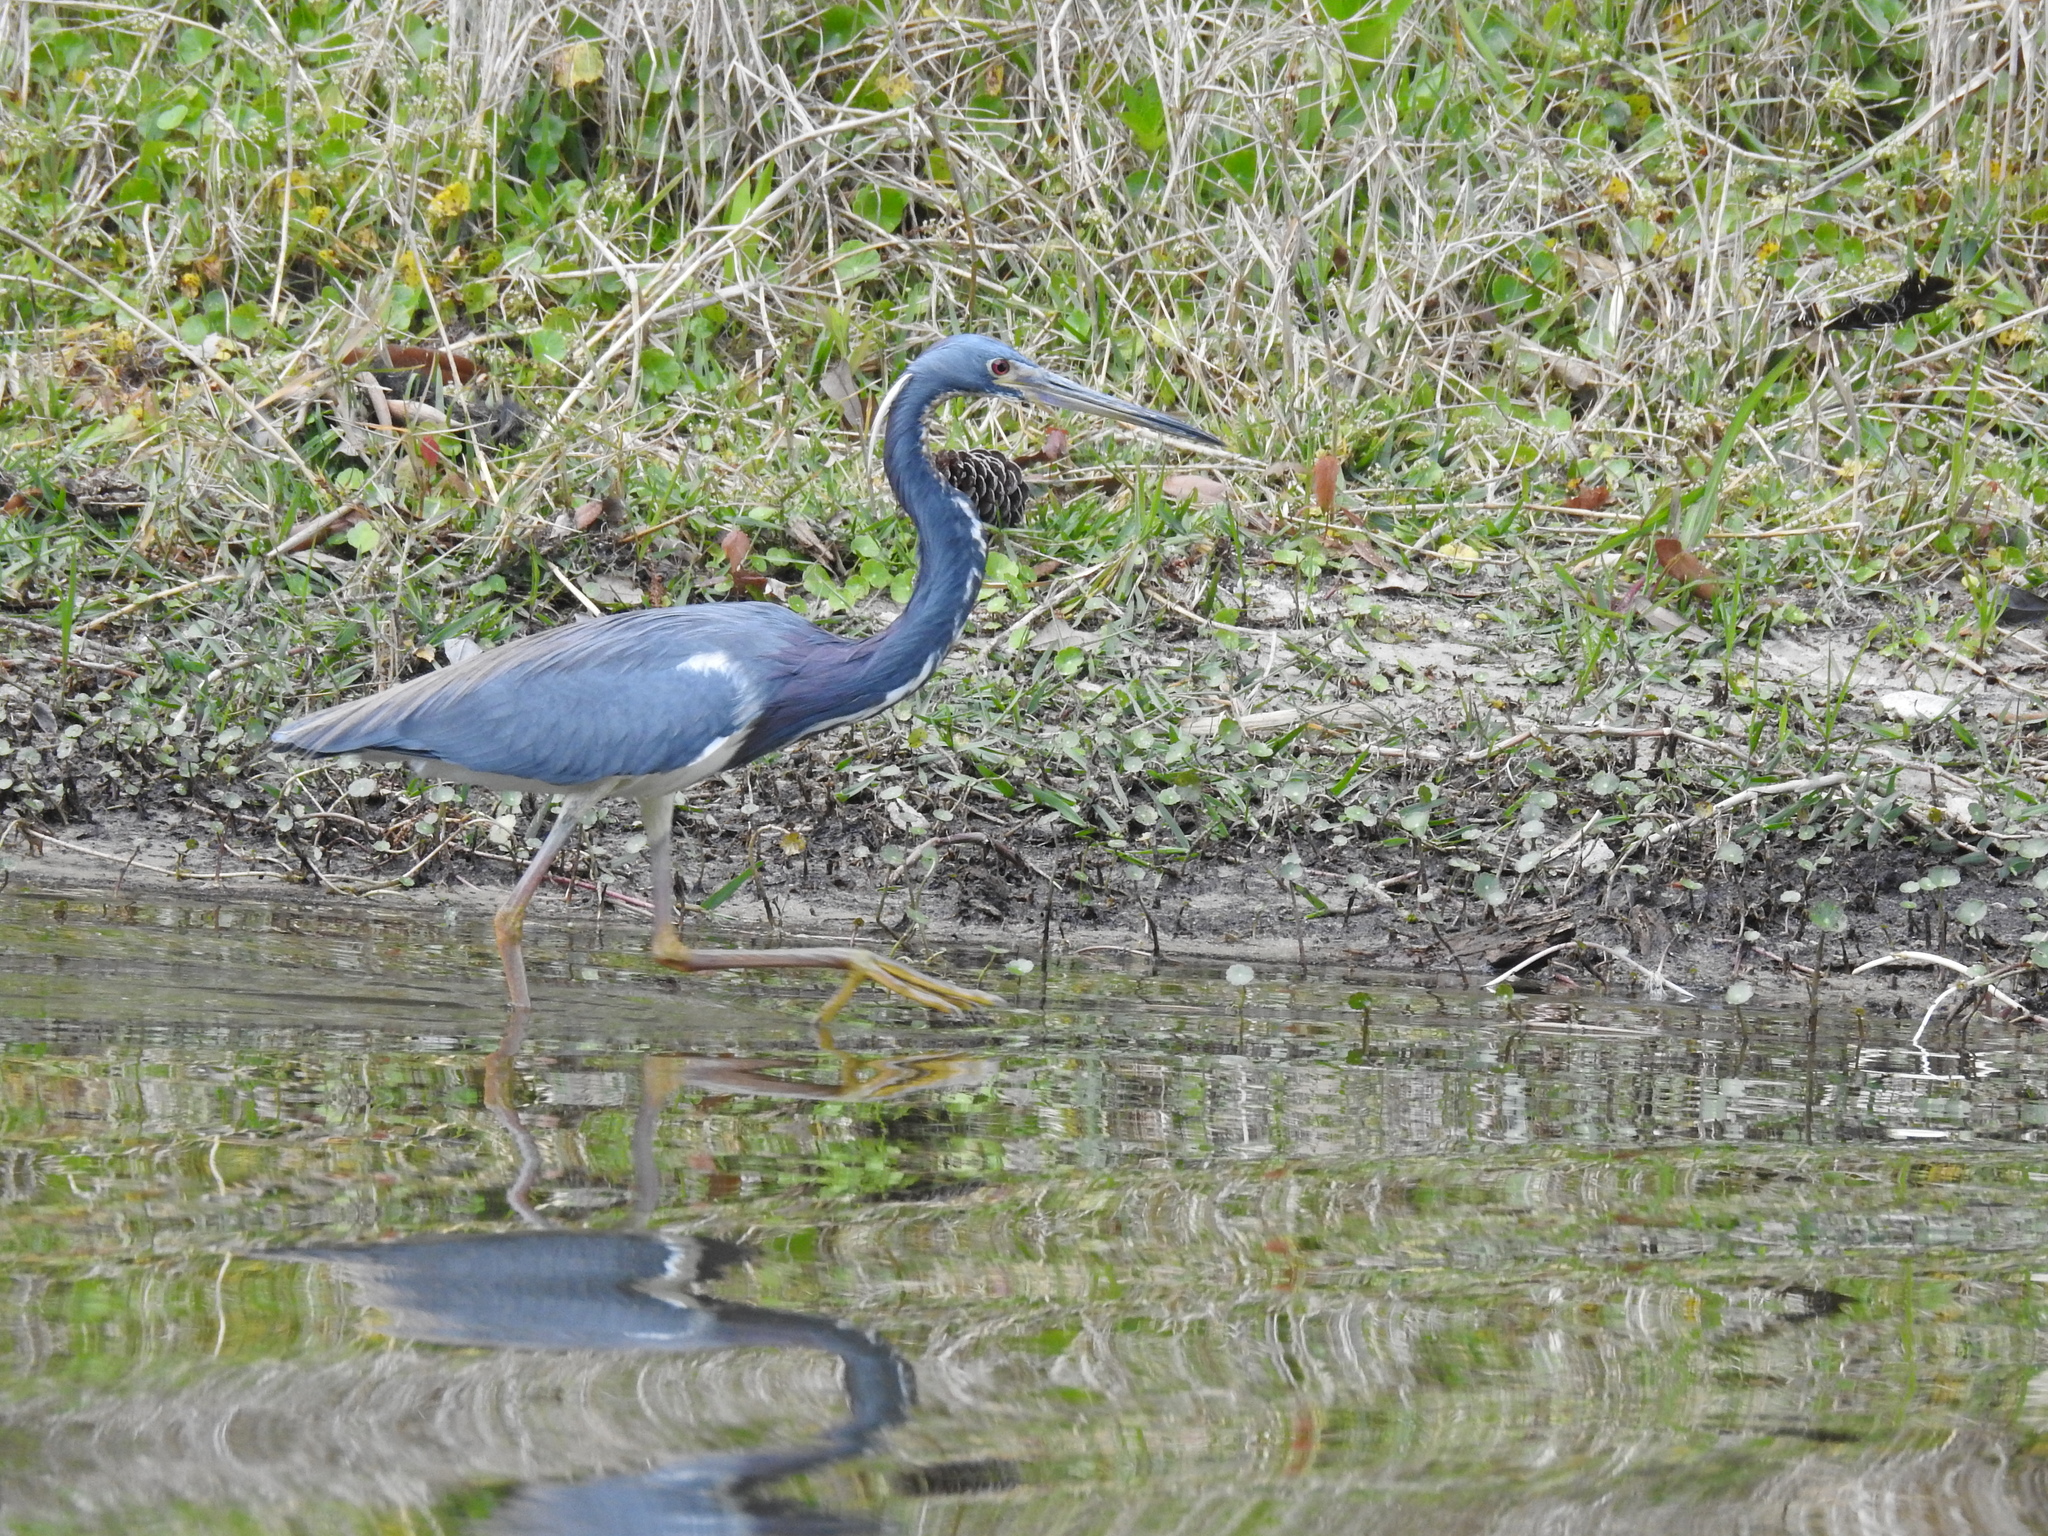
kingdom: Animalia
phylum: Chordata
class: Aves
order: Pelecaniformes
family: Ardeidae
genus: Egretta
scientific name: Egretta tricolor
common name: Tricolored heron
